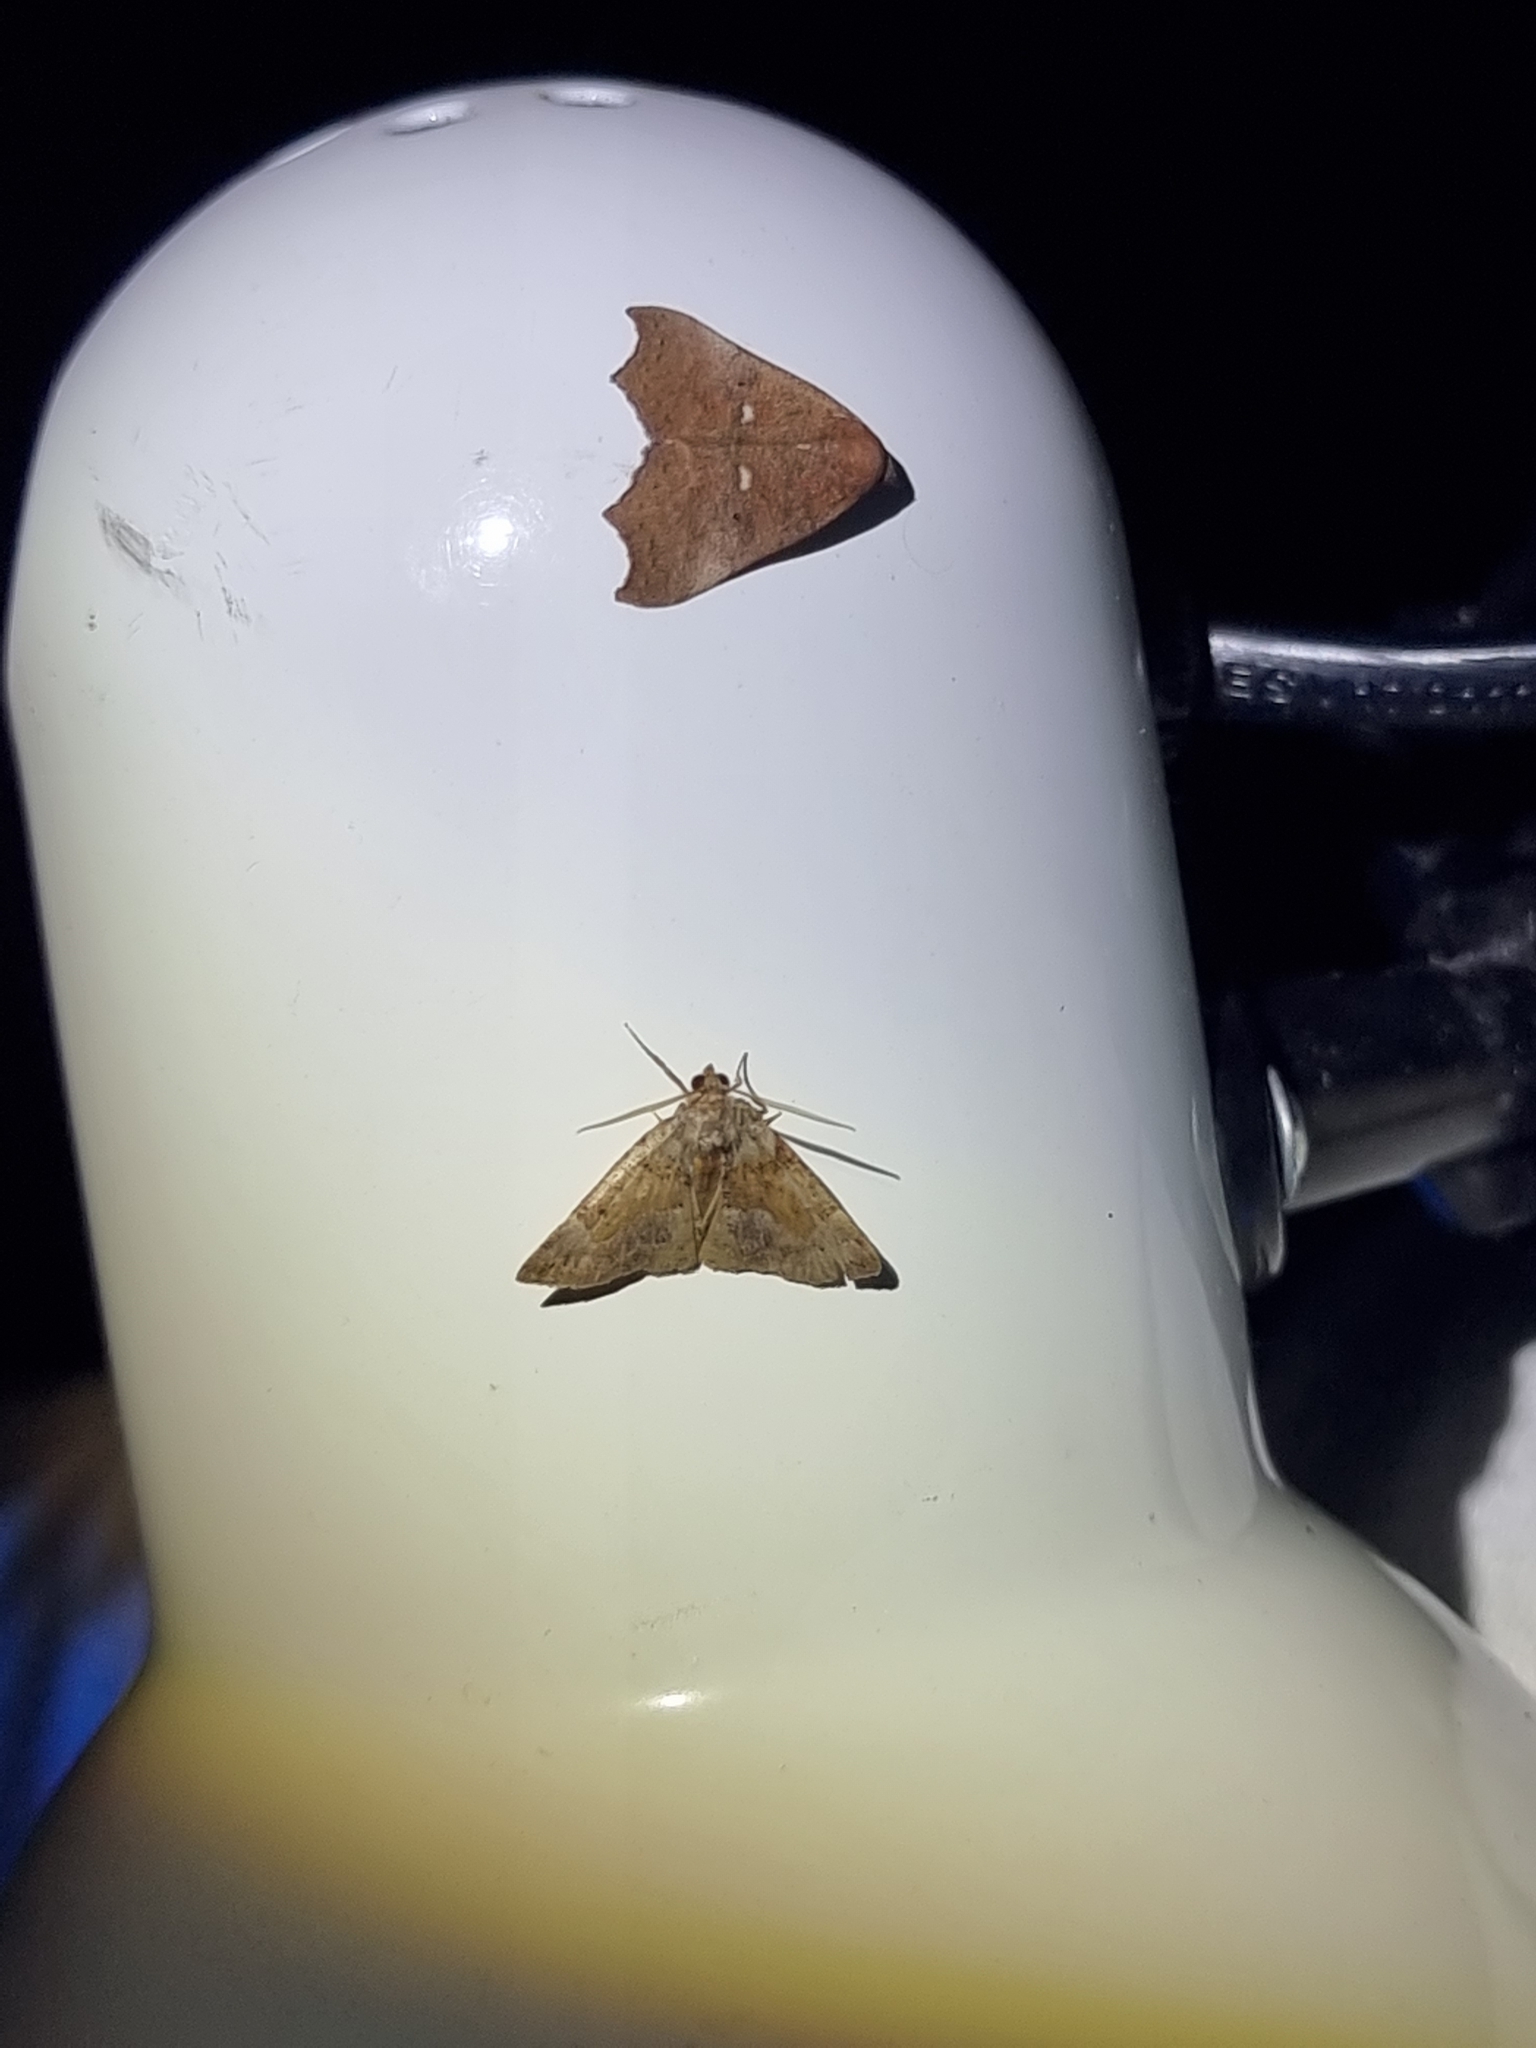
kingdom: Animalia
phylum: Arthropoda
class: Insecta
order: Lepidoptera
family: Erebidae
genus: Axiocteta
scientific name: Axiocteta oenoplex
